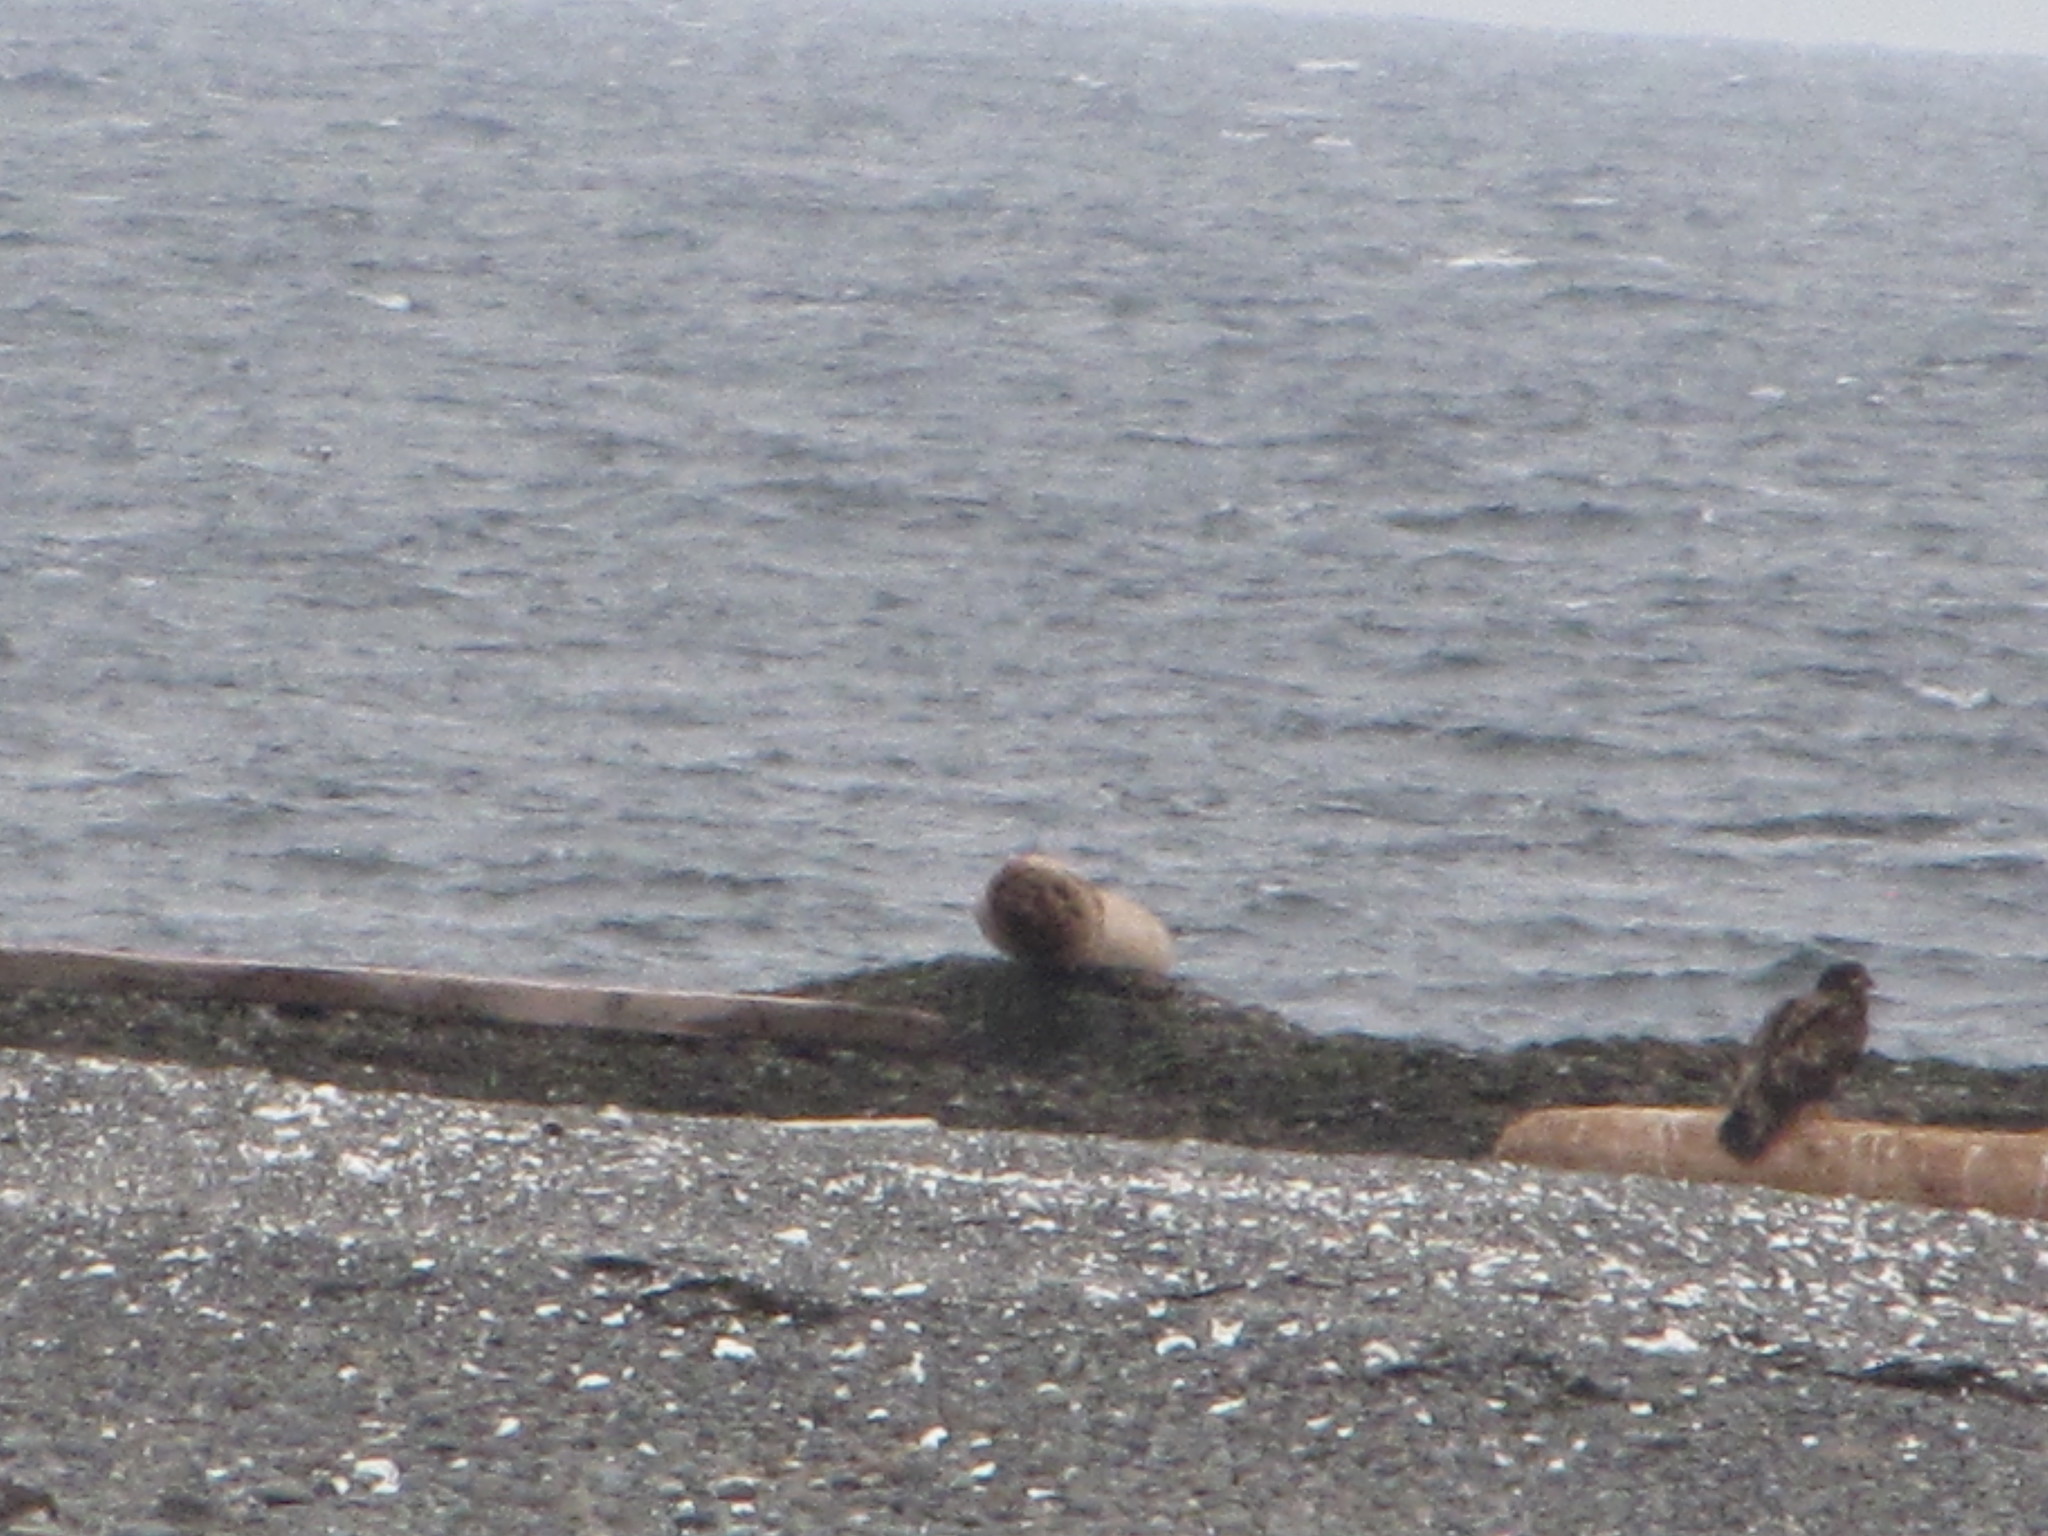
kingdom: Animalia
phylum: Chordata
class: Aves
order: Accipitriformes
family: Accipitridae
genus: Haliaeetus
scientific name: Haliaeetus leucocephalus
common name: Bald eagle
